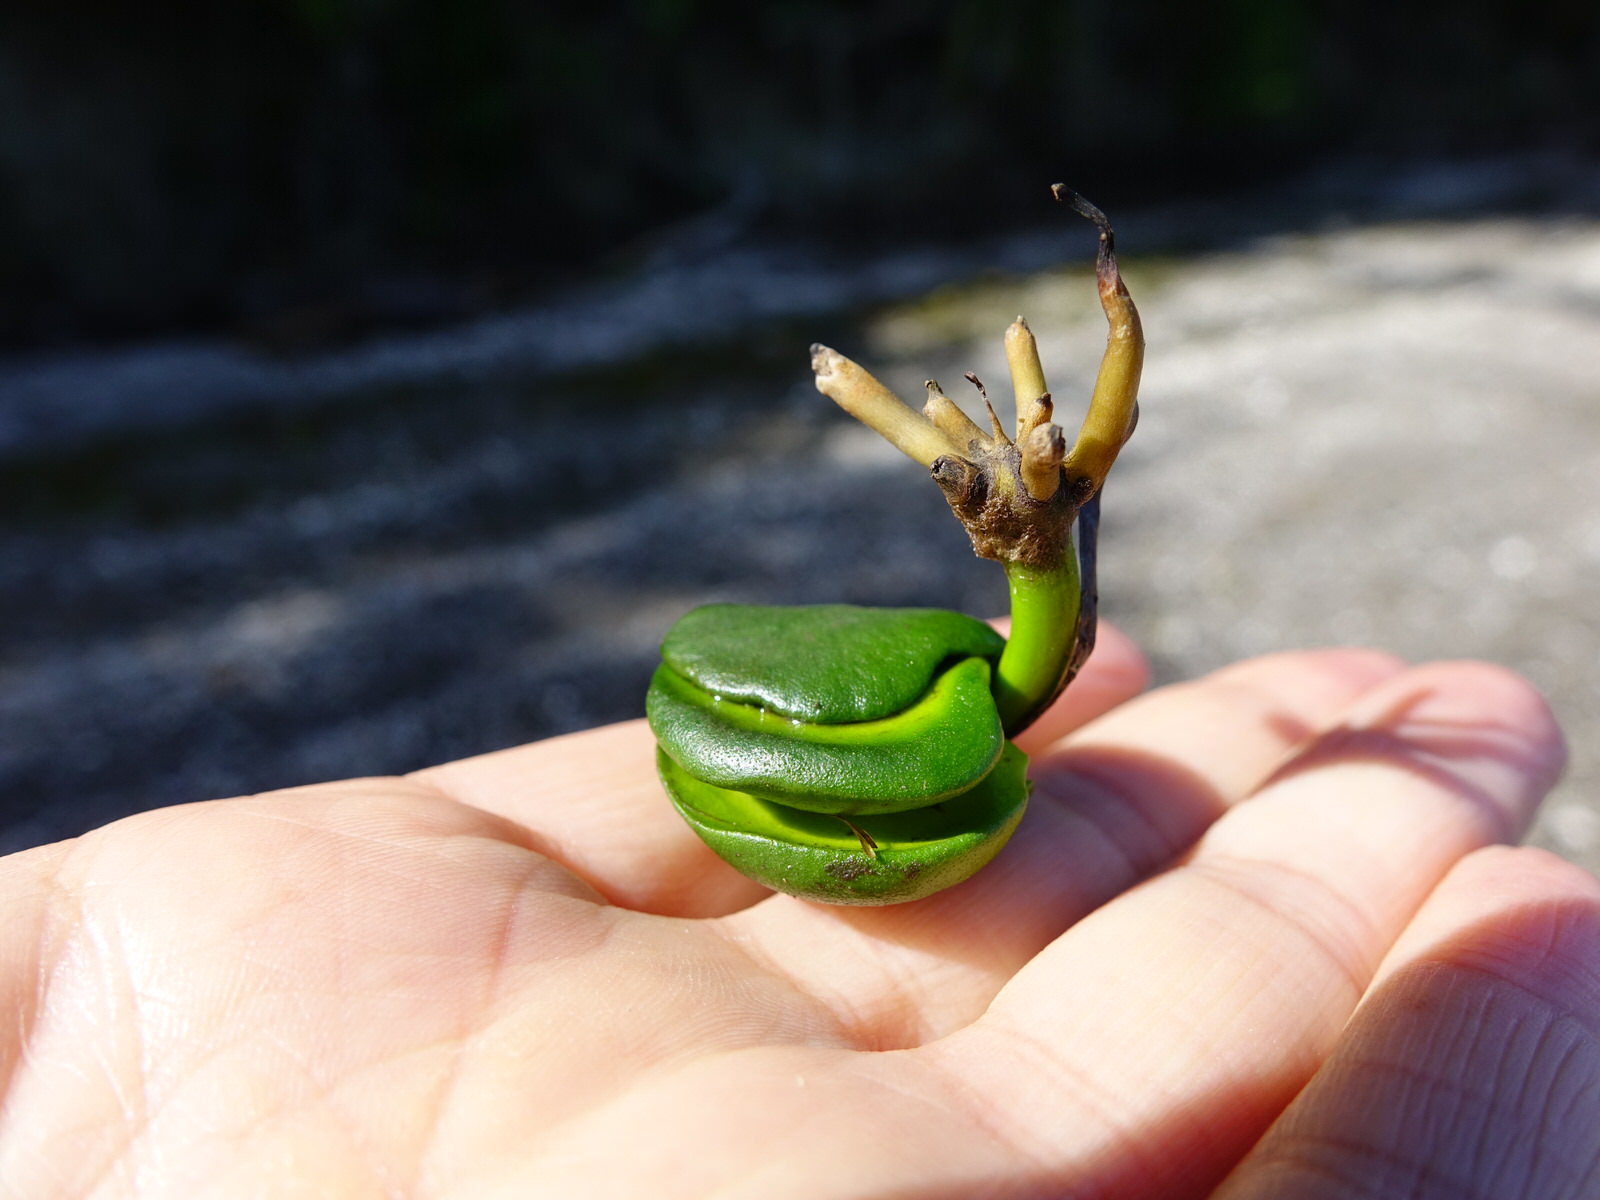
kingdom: Plantae
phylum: Tracheophyta
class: Magnoliopsida
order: Lamiales
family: Acanthaceae
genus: Avicennia
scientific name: Avicennia marina
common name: Gray mangrove
